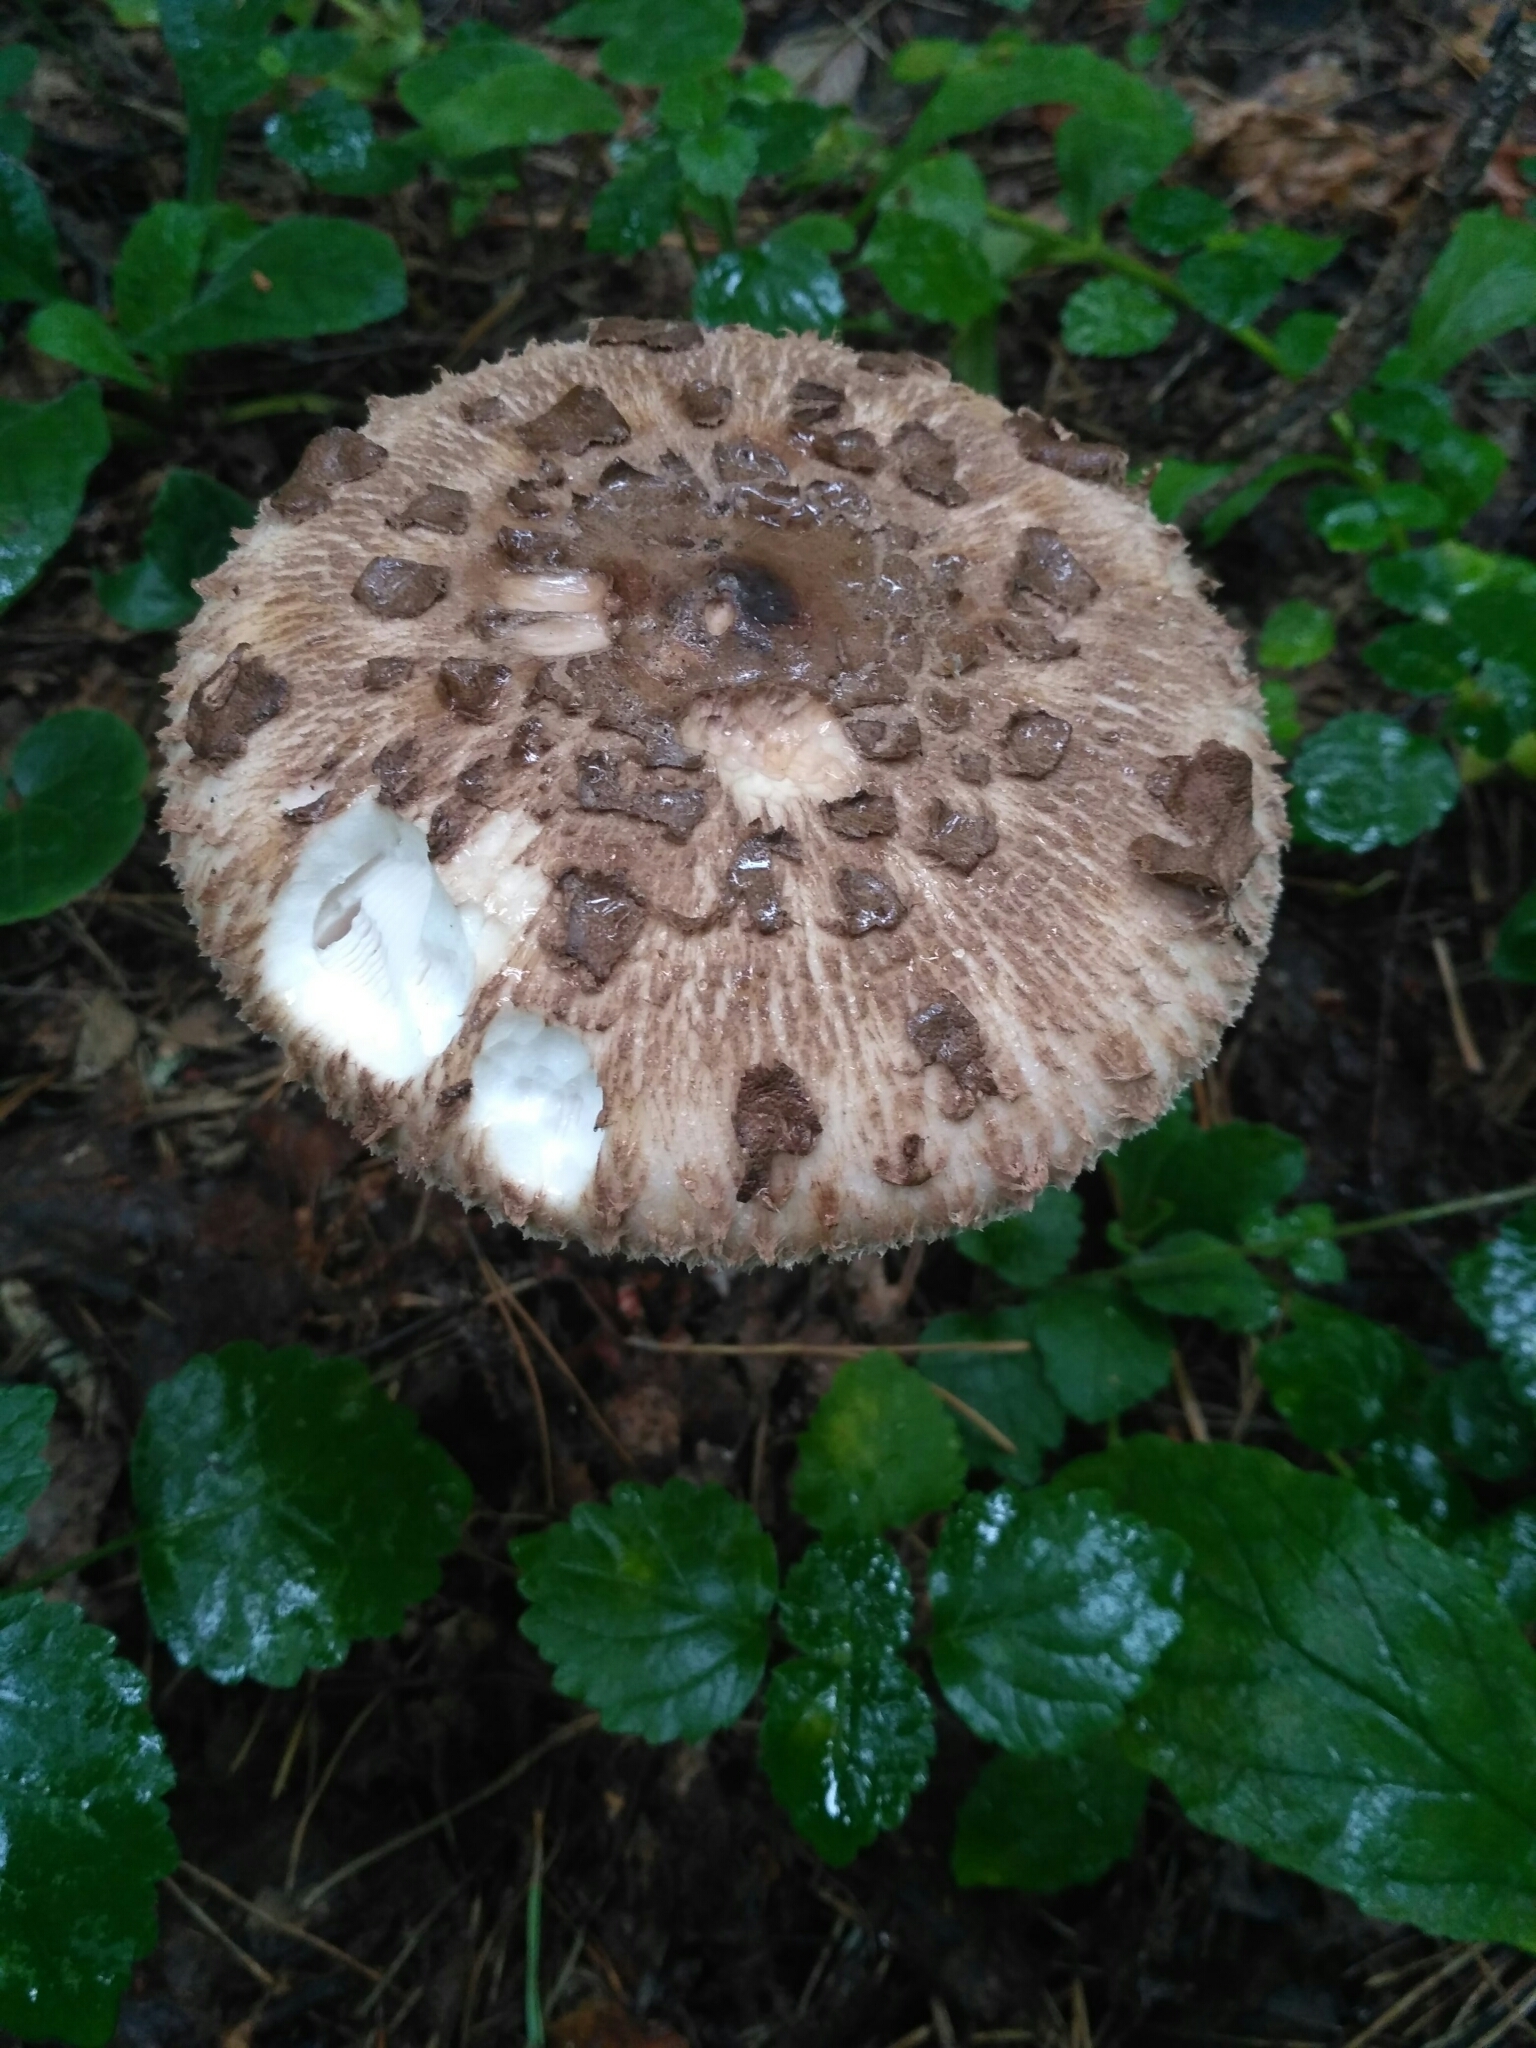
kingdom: Fungi
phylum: Basidiomycota
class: Agaricomycetes
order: Agaricales
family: Agaricaceae
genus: Macrolepiota
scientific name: Macrolepiota procera
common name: Parasol
